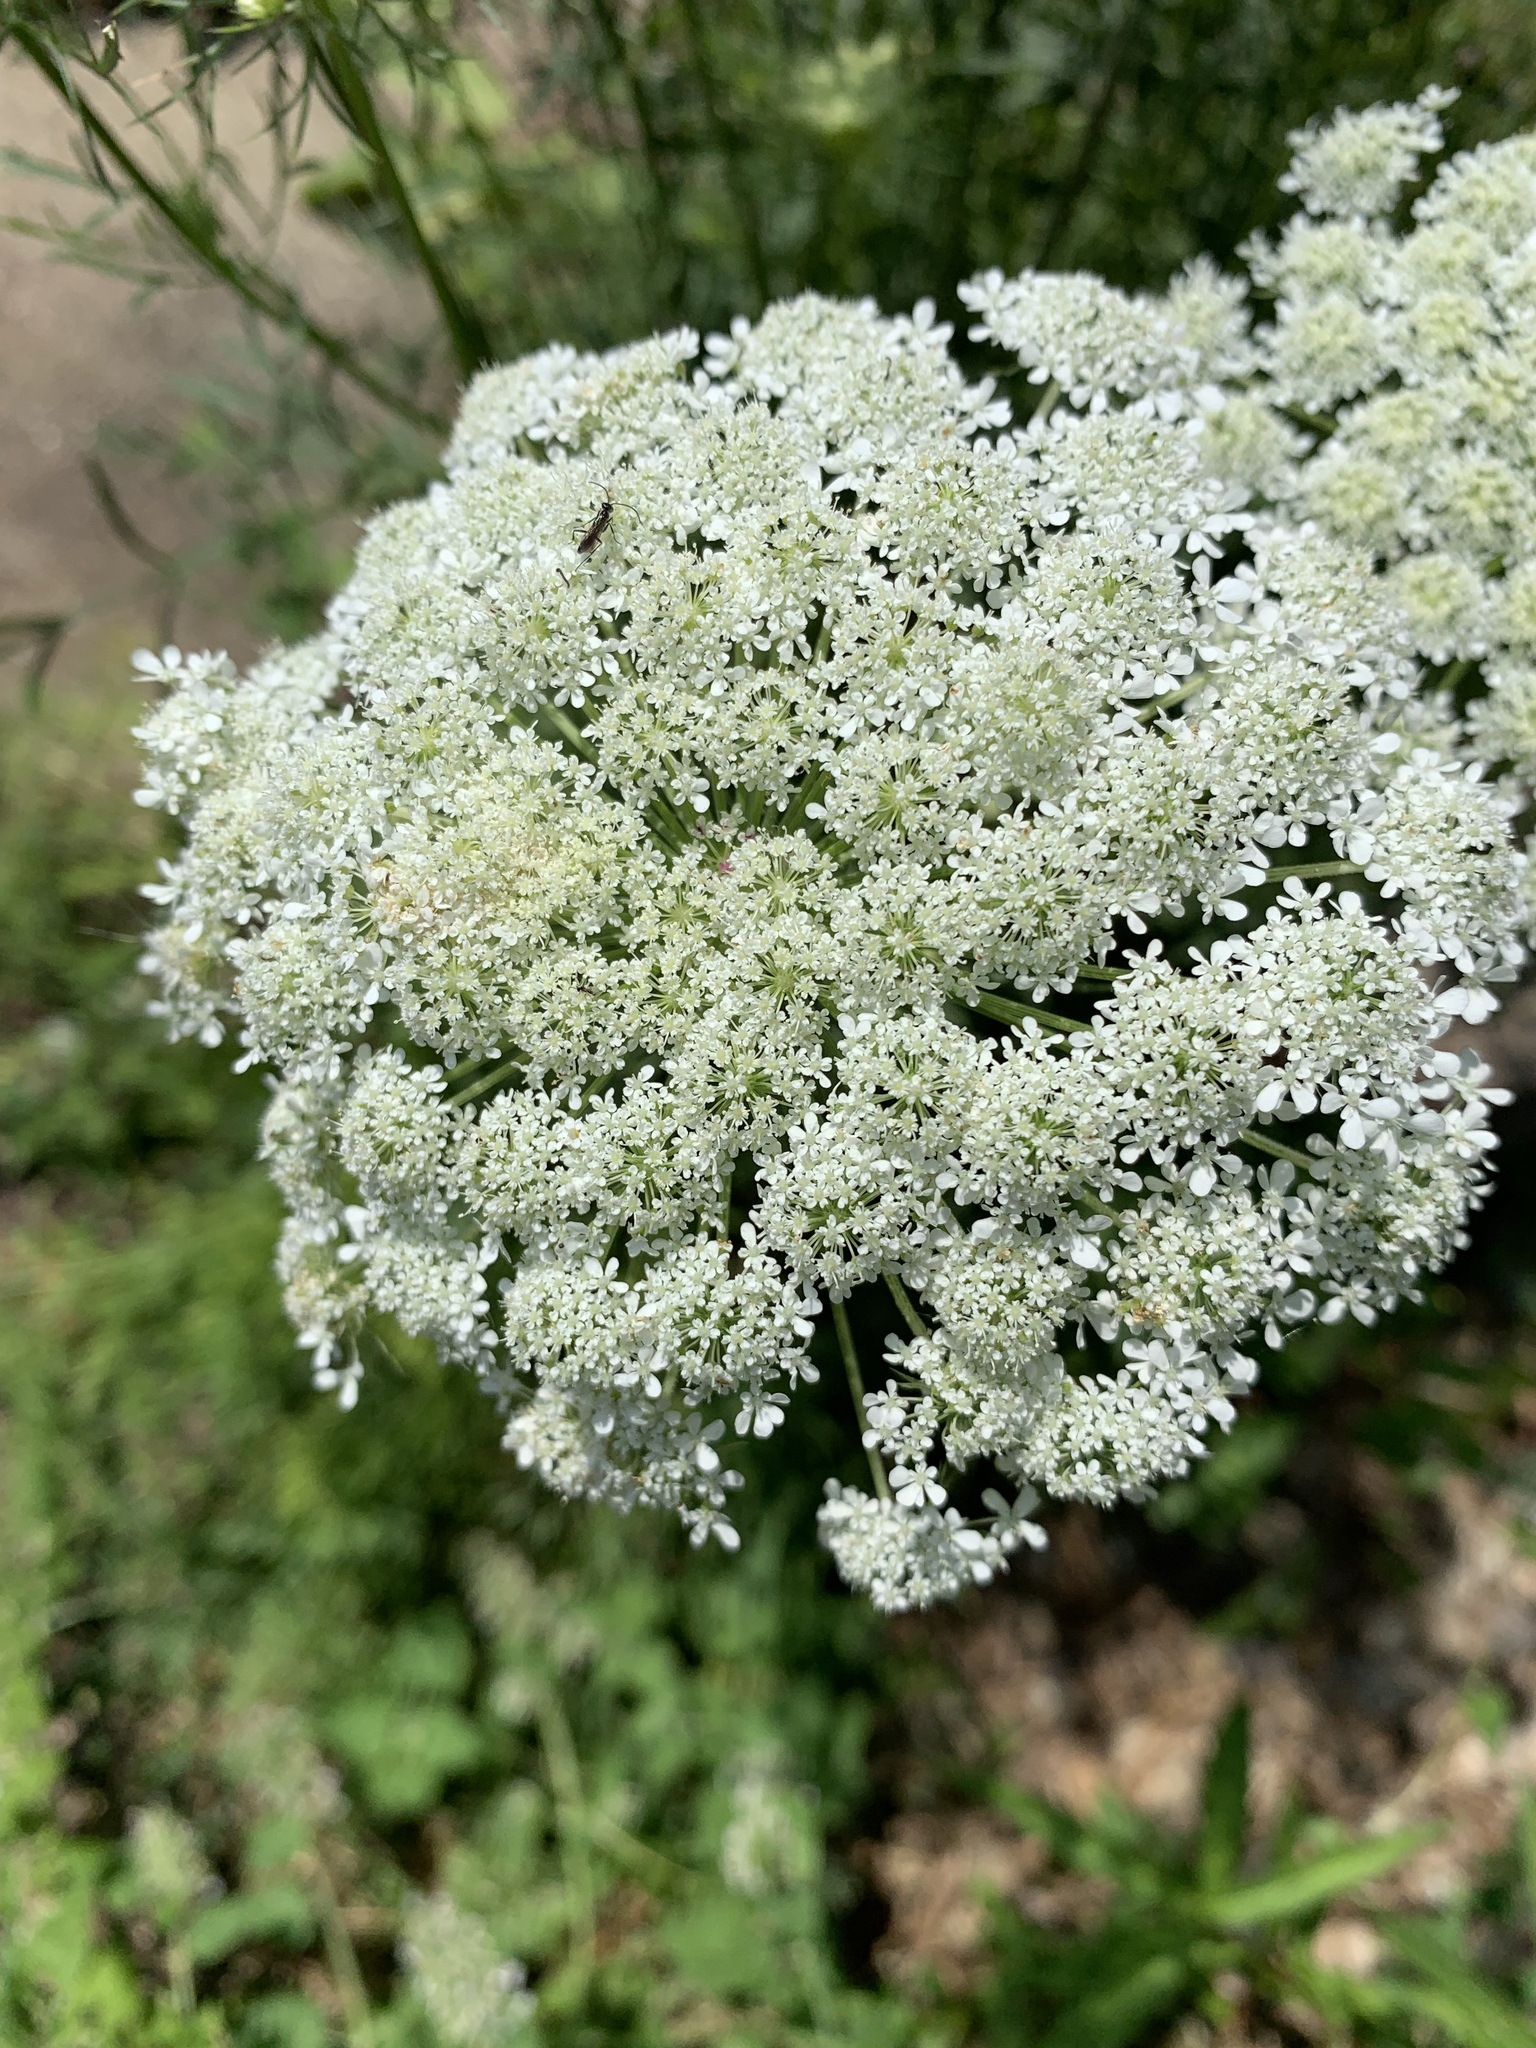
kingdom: Plantae
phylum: Tracheophyta
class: Magnoliopsida
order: Apiales
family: Apiaceae
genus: Daucus
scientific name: Daucus carota
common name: Wild carrot
